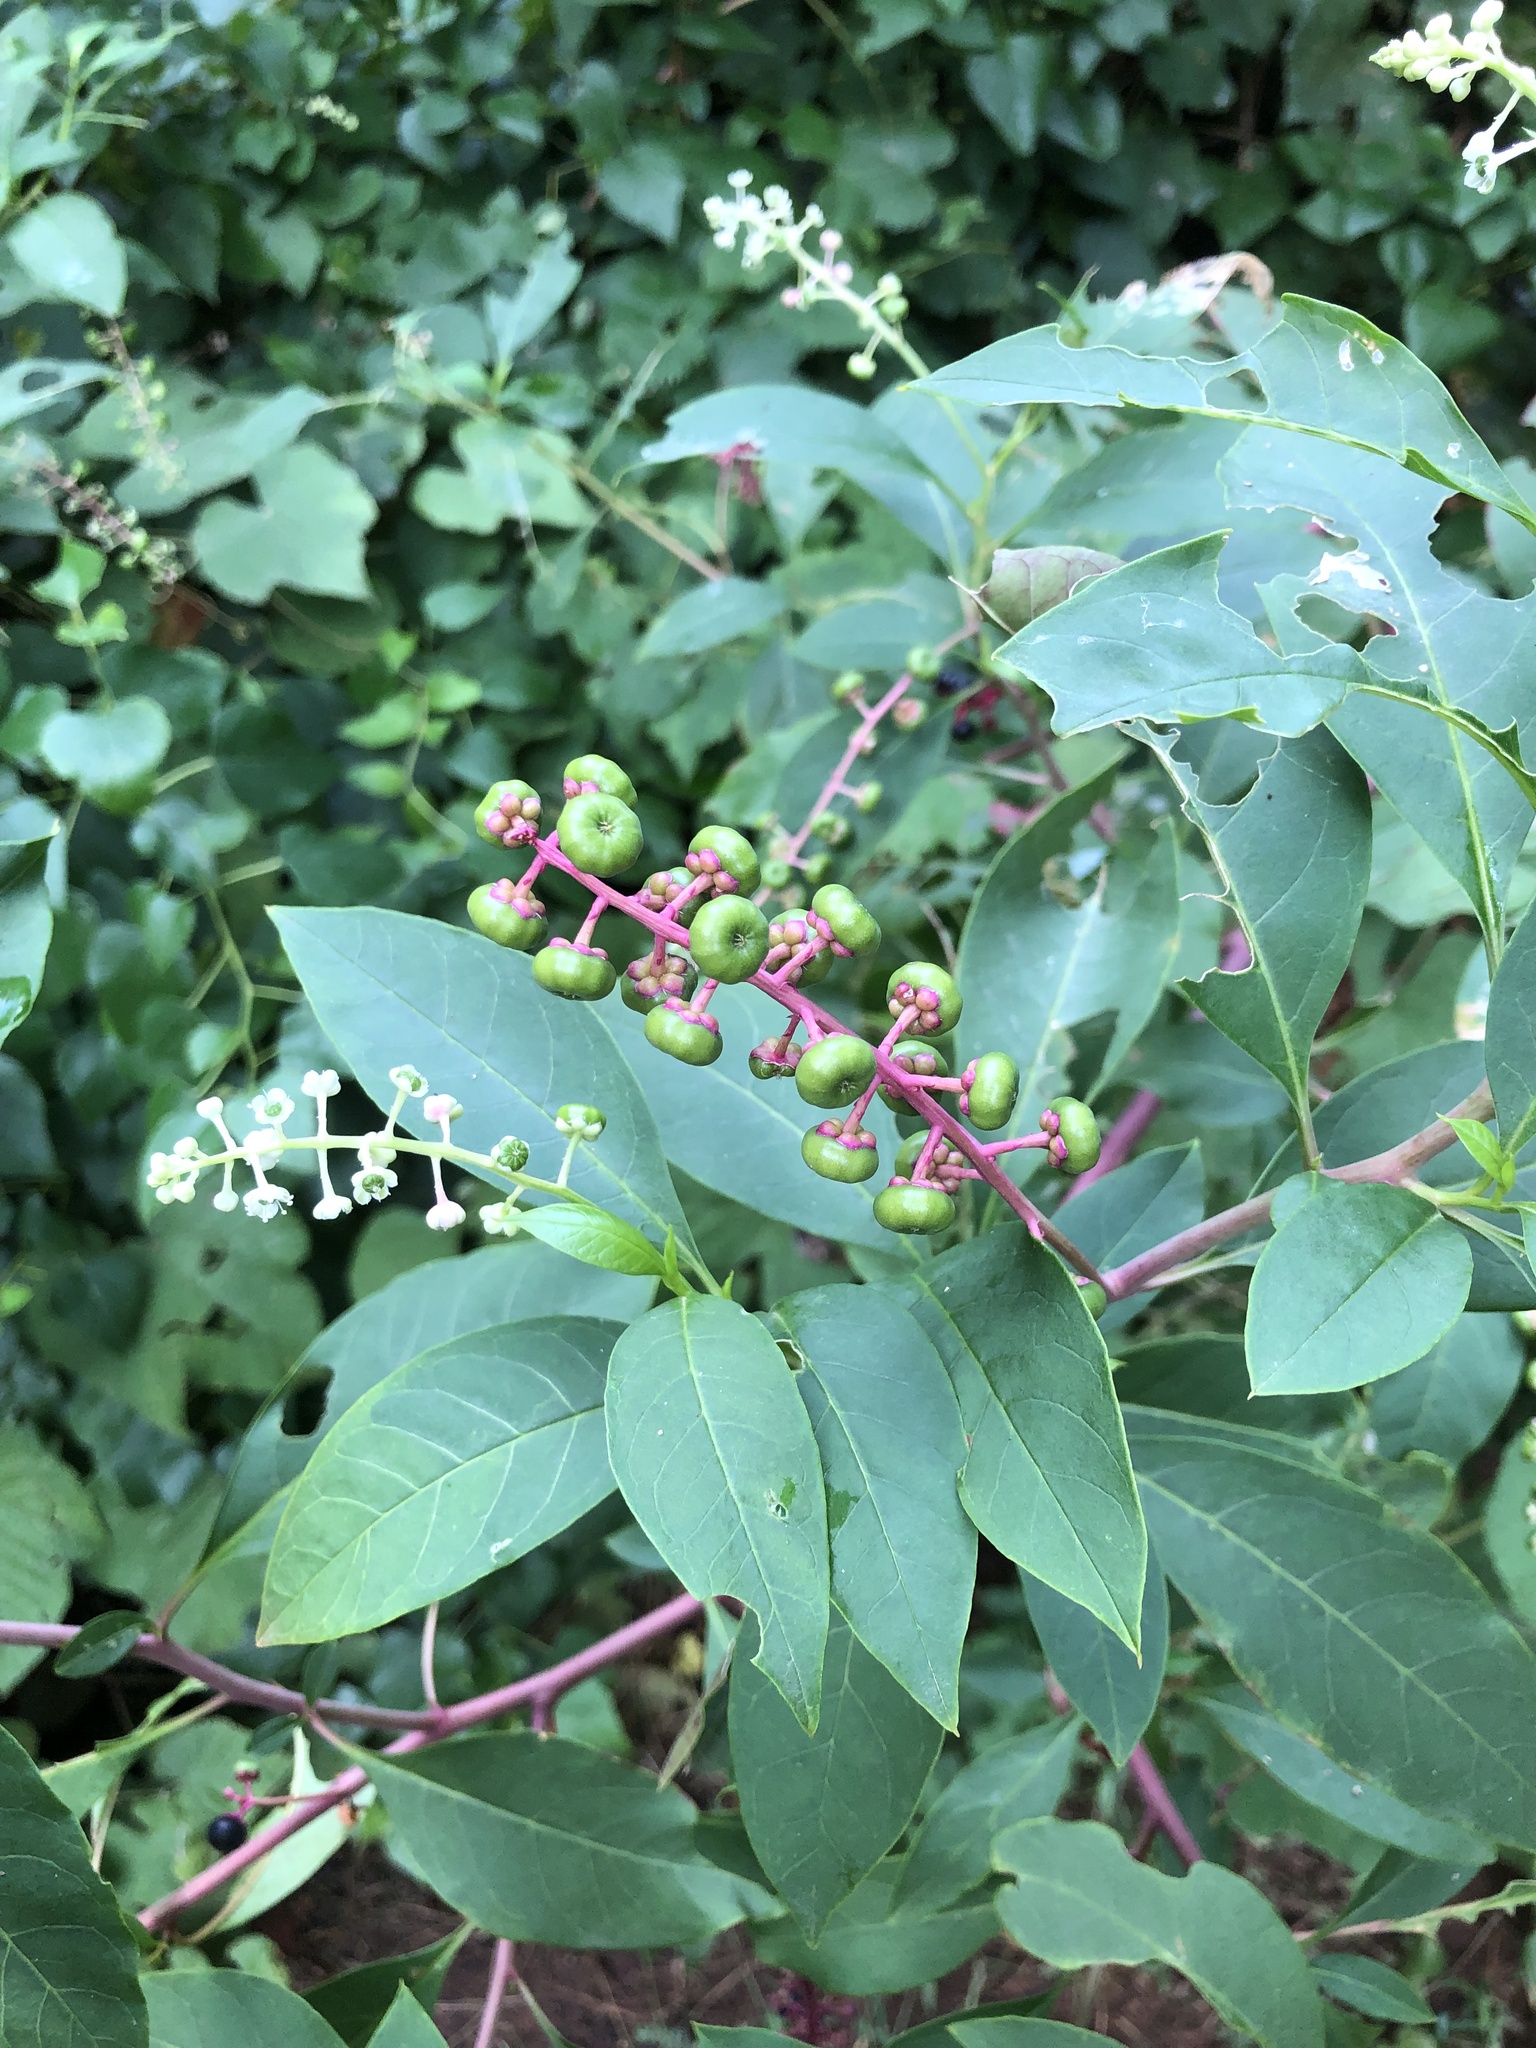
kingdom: Plantae
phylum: Tracheophyta
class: Magnoliopsida
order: Caryophyllales
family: Phytolaccaceae
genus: Phytolacca
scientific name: Phytolacca americana
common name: American pokeweed
